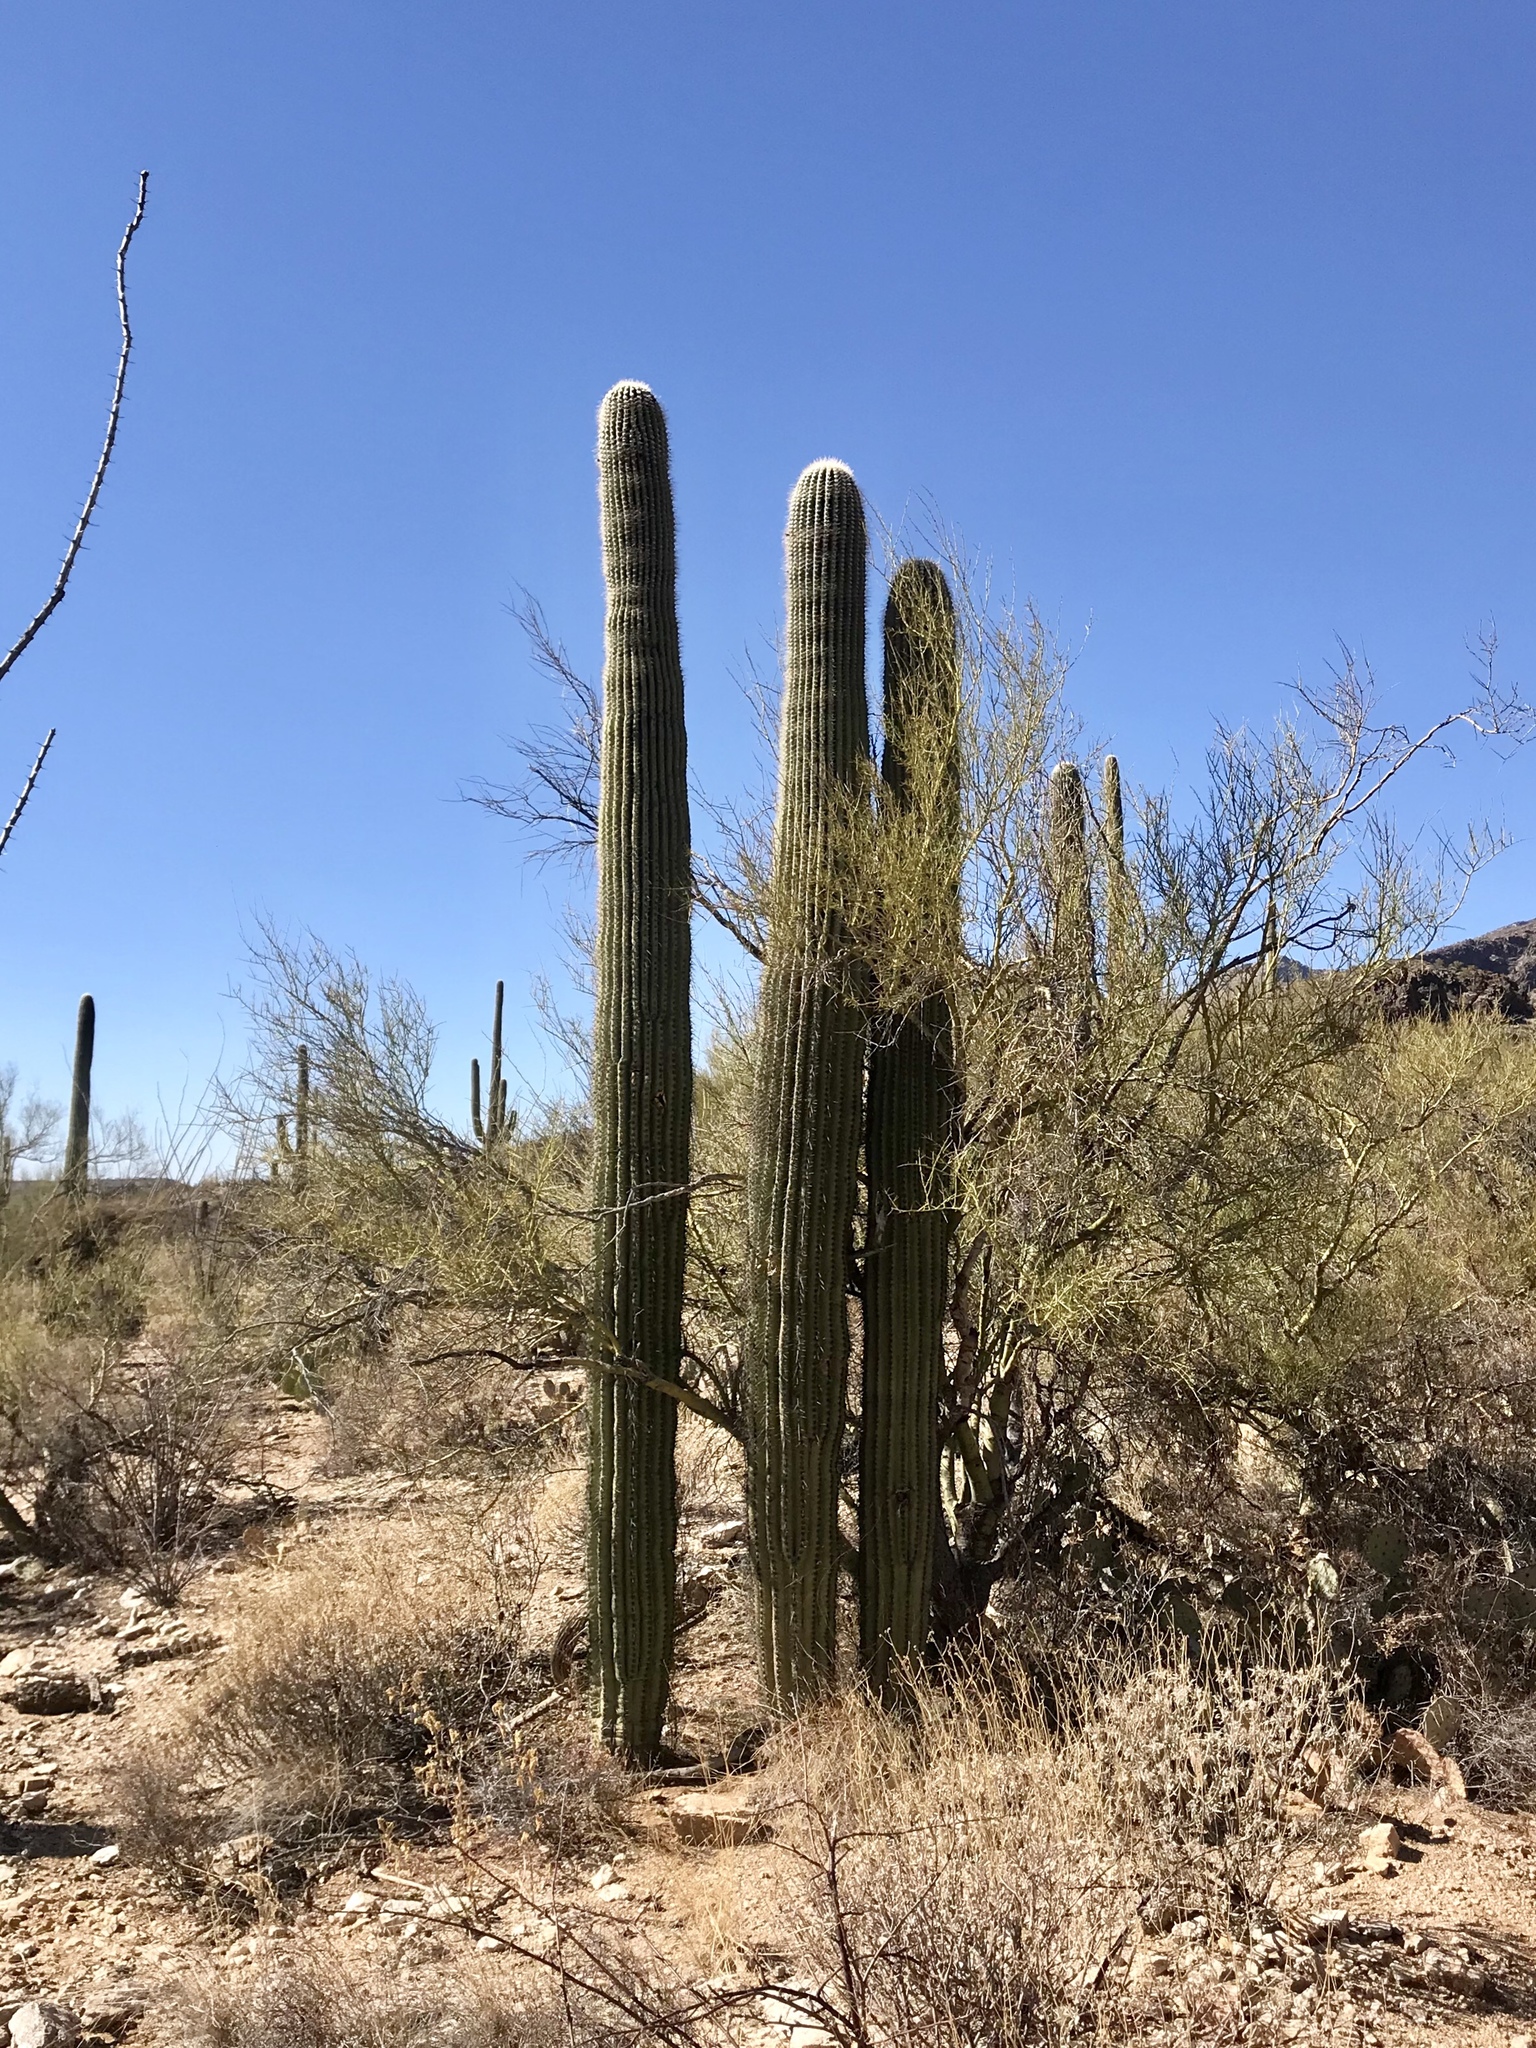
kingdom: Plantae
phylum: Tracheophyta
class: Magnoliopsida
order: Caryophyllales
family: Cactaceae
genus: Carnegiea
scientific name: Carnegiea gigantea
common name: Saguaro
